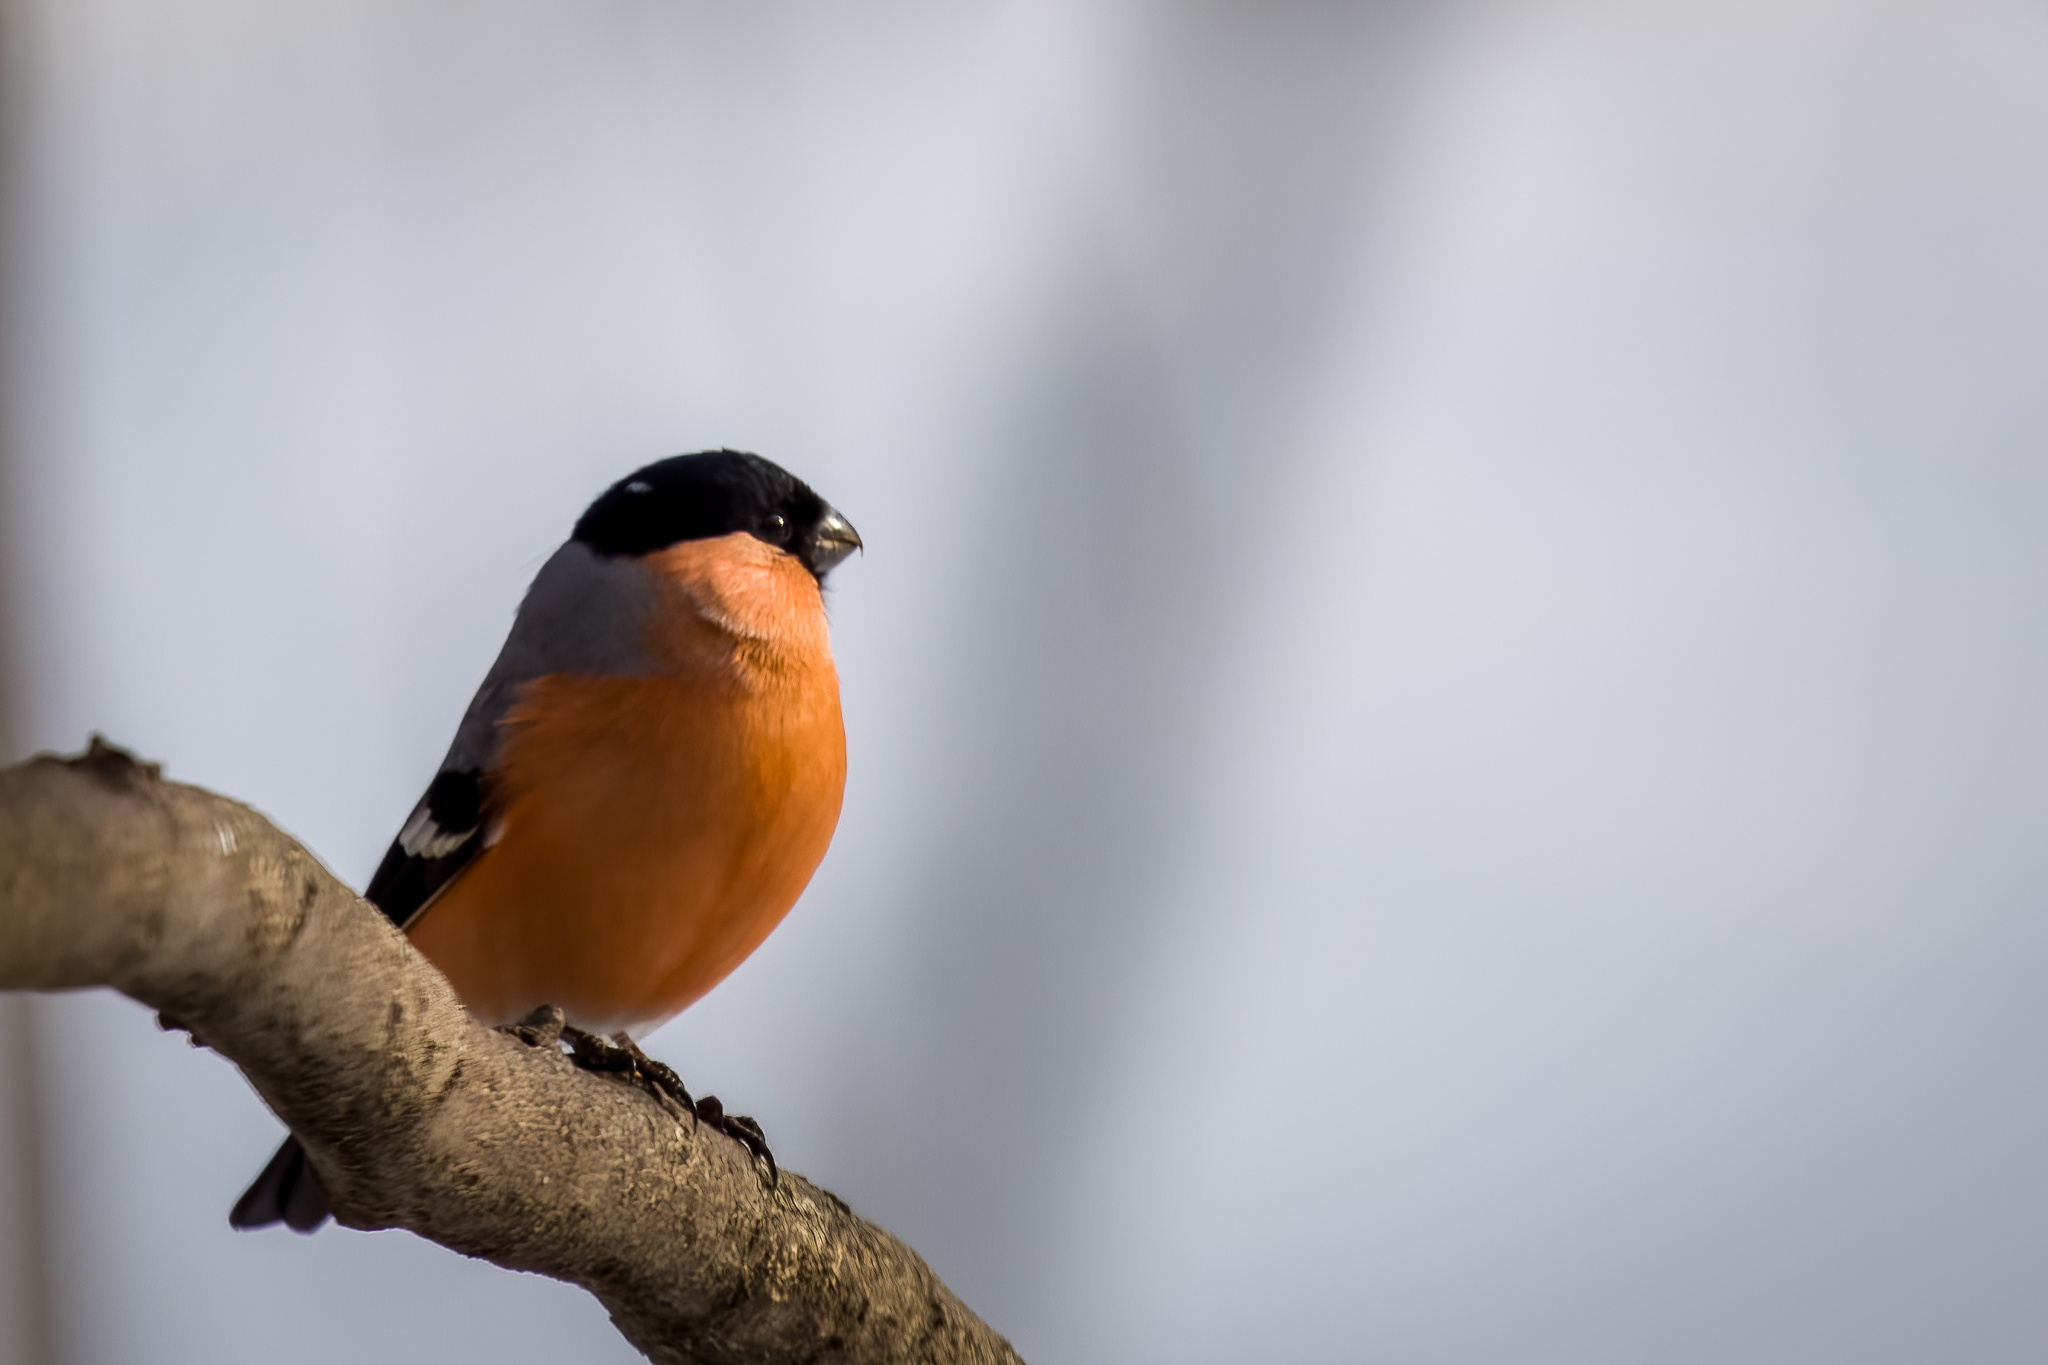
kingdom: Animalia
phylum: Chordata
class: Aves
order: Passeriformes
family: Fringillidae
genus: Pyrrhula
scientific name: Pyrrhula pyrrhula
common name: Eurasian bullfinch
